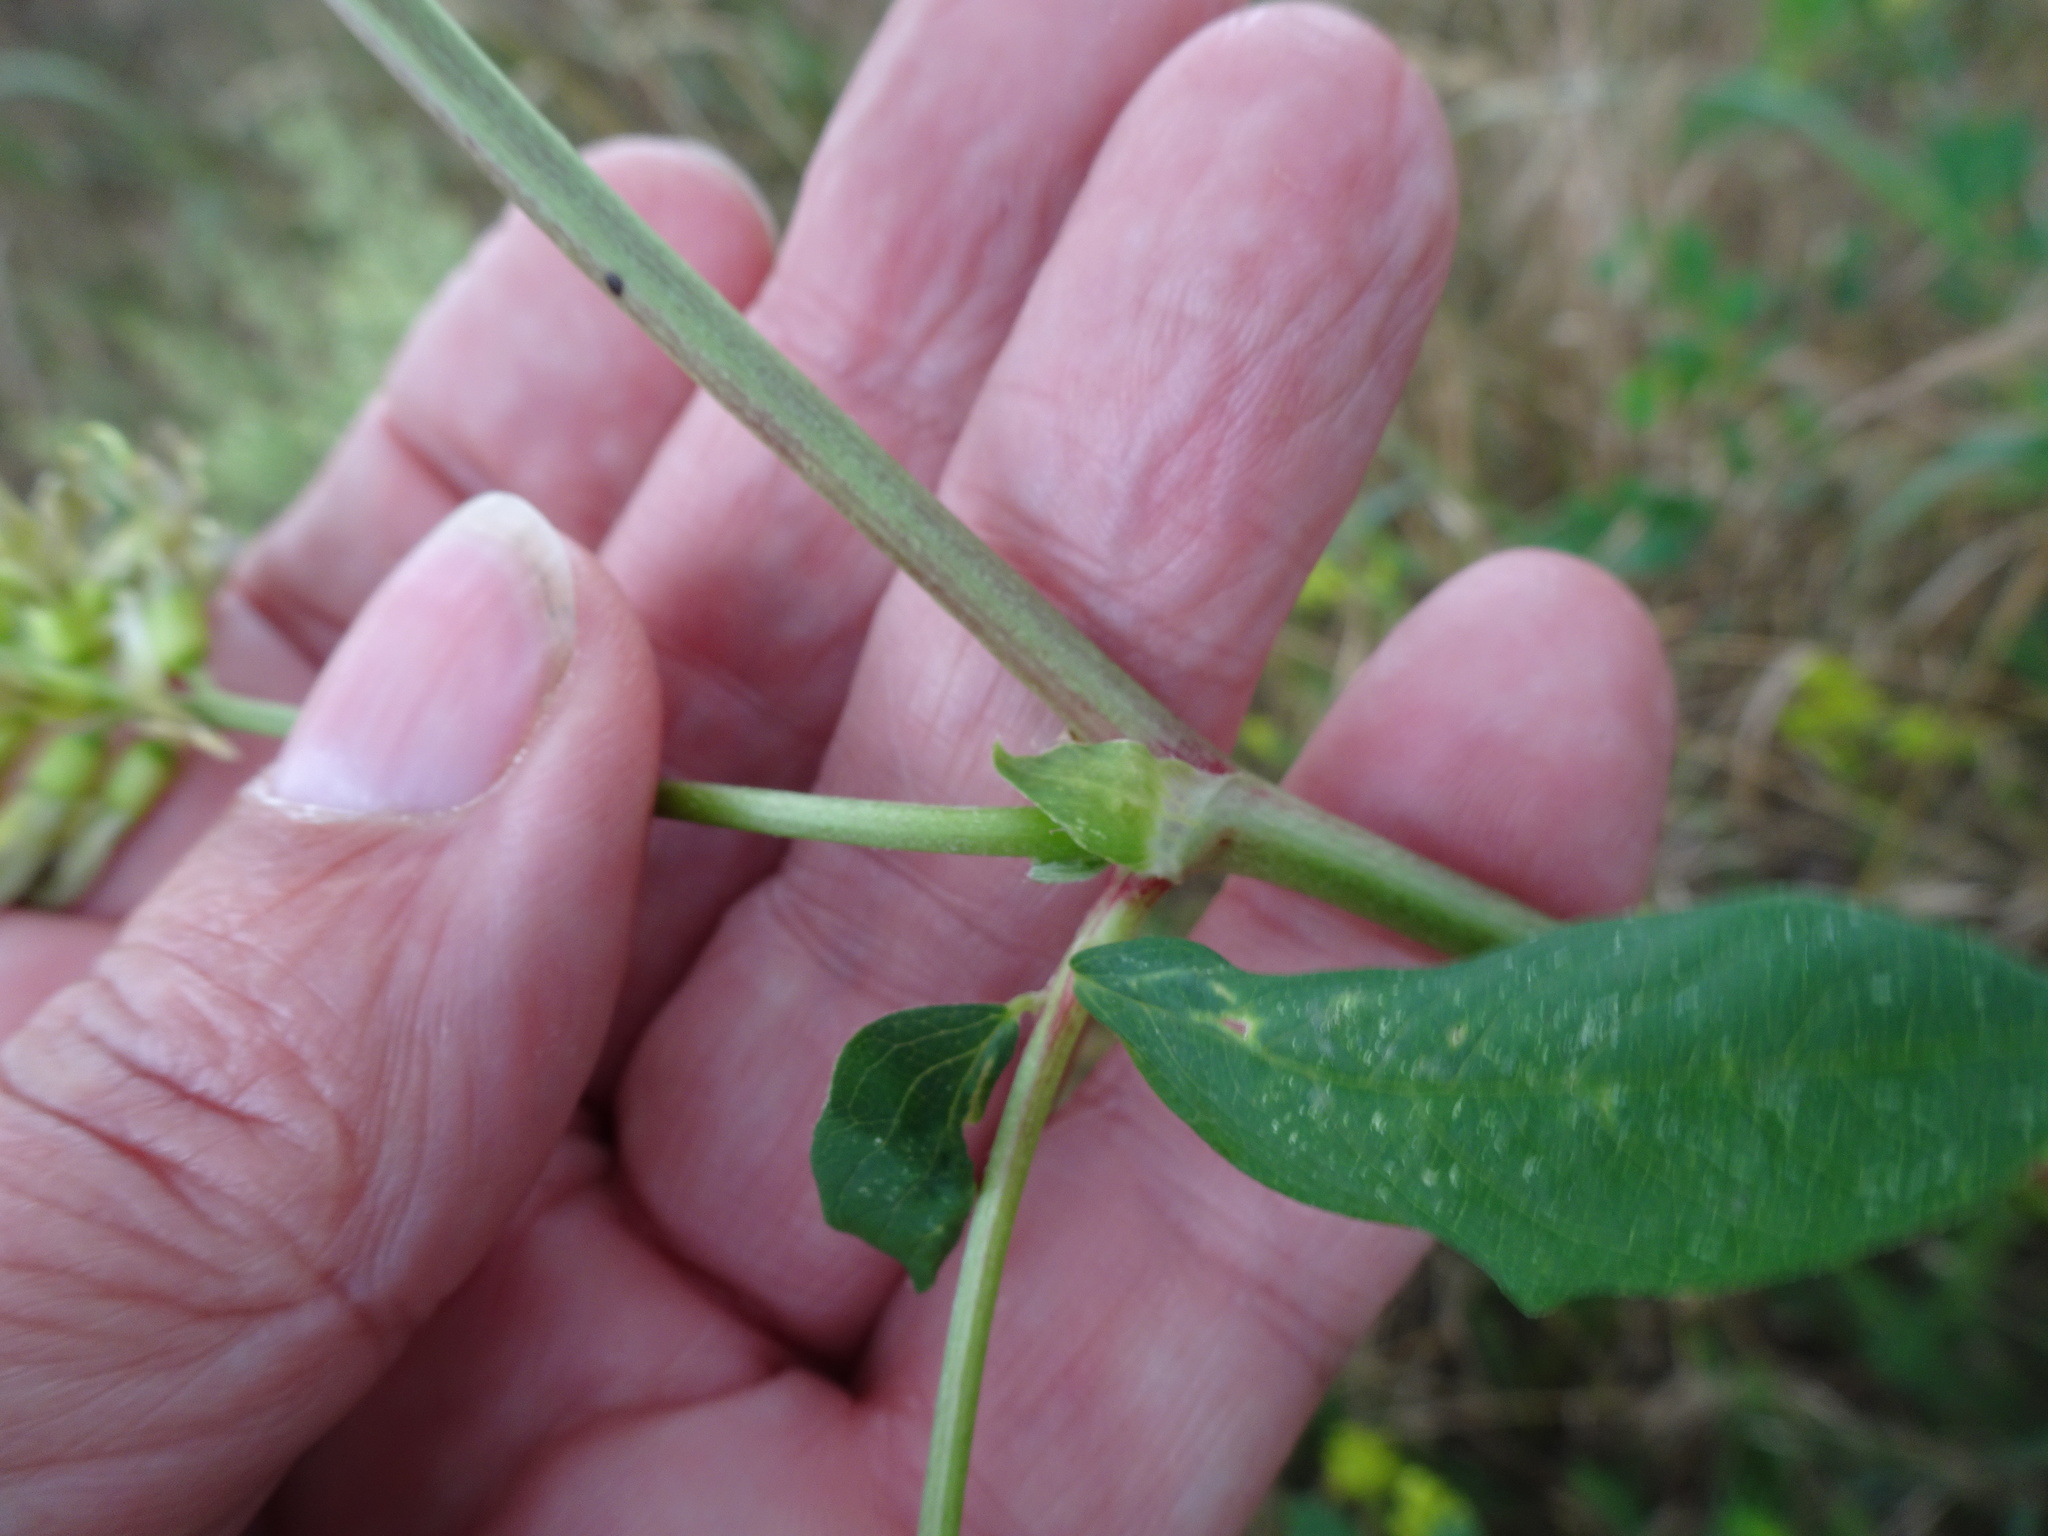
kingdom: Plantae
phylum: Tracheophyta
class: Magnoliopsida
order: Fabales
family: Fabaceae
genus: Astragalus
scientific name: Astragalus glycyphyllos
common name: Wild liquorice
